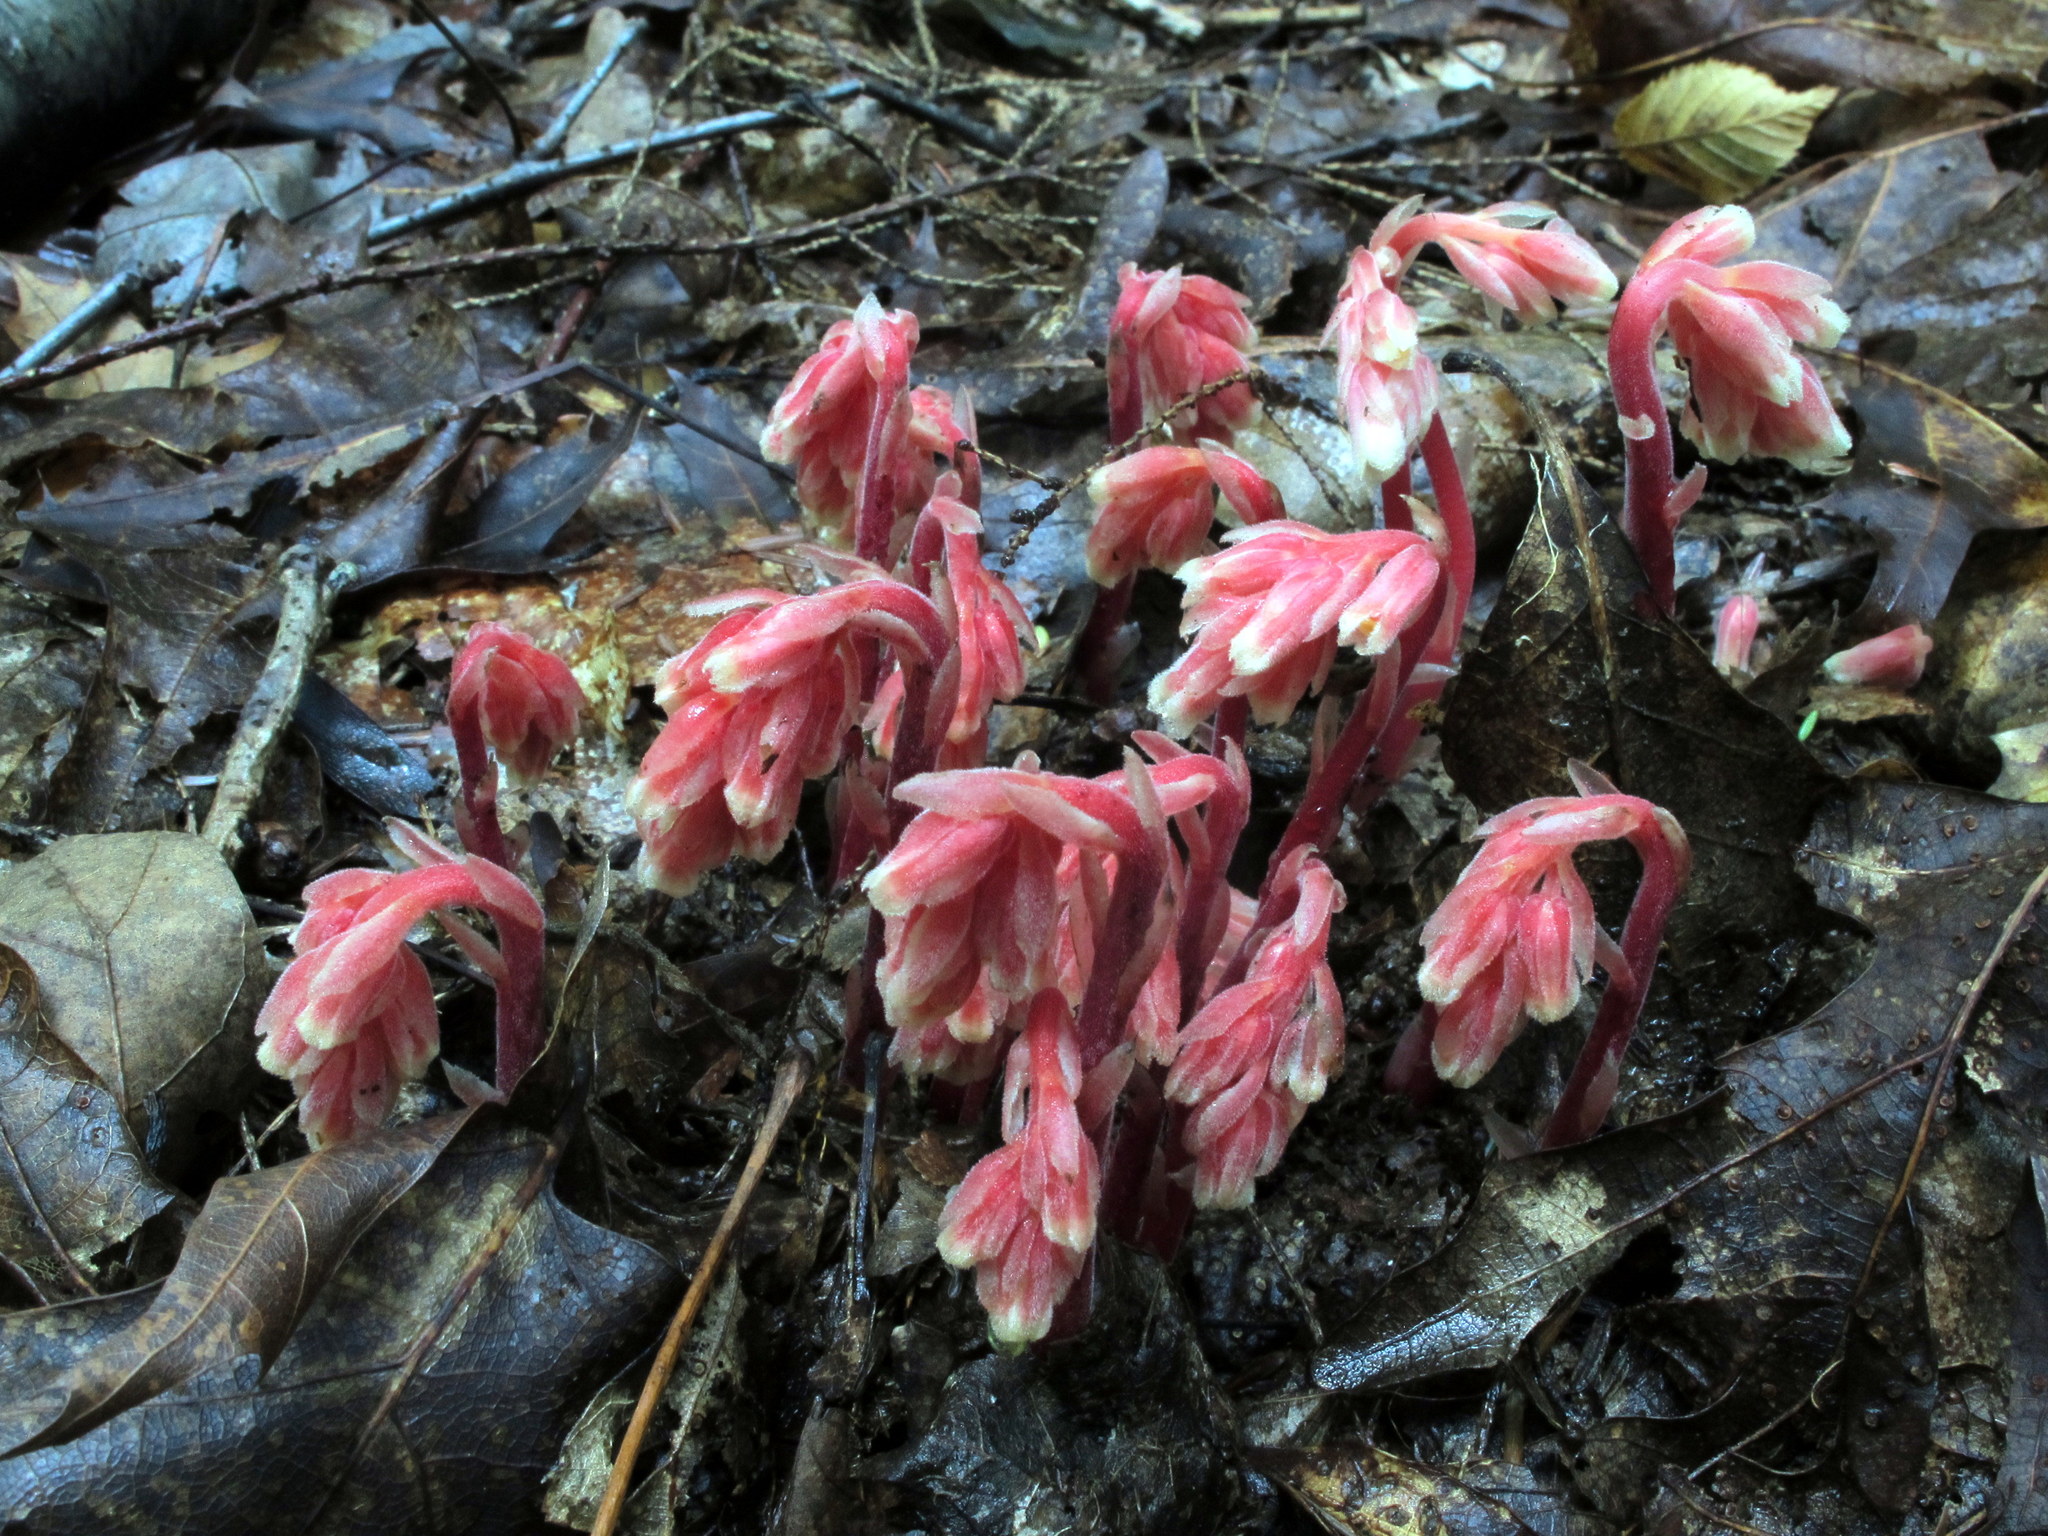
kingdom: Plantae
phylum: Tracheophyta
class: Magnoliopsida
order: Ericales
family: Ericaceae
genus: Hypopitys
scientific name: Hypopitys monotropa
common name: Yellow bird's-nest
